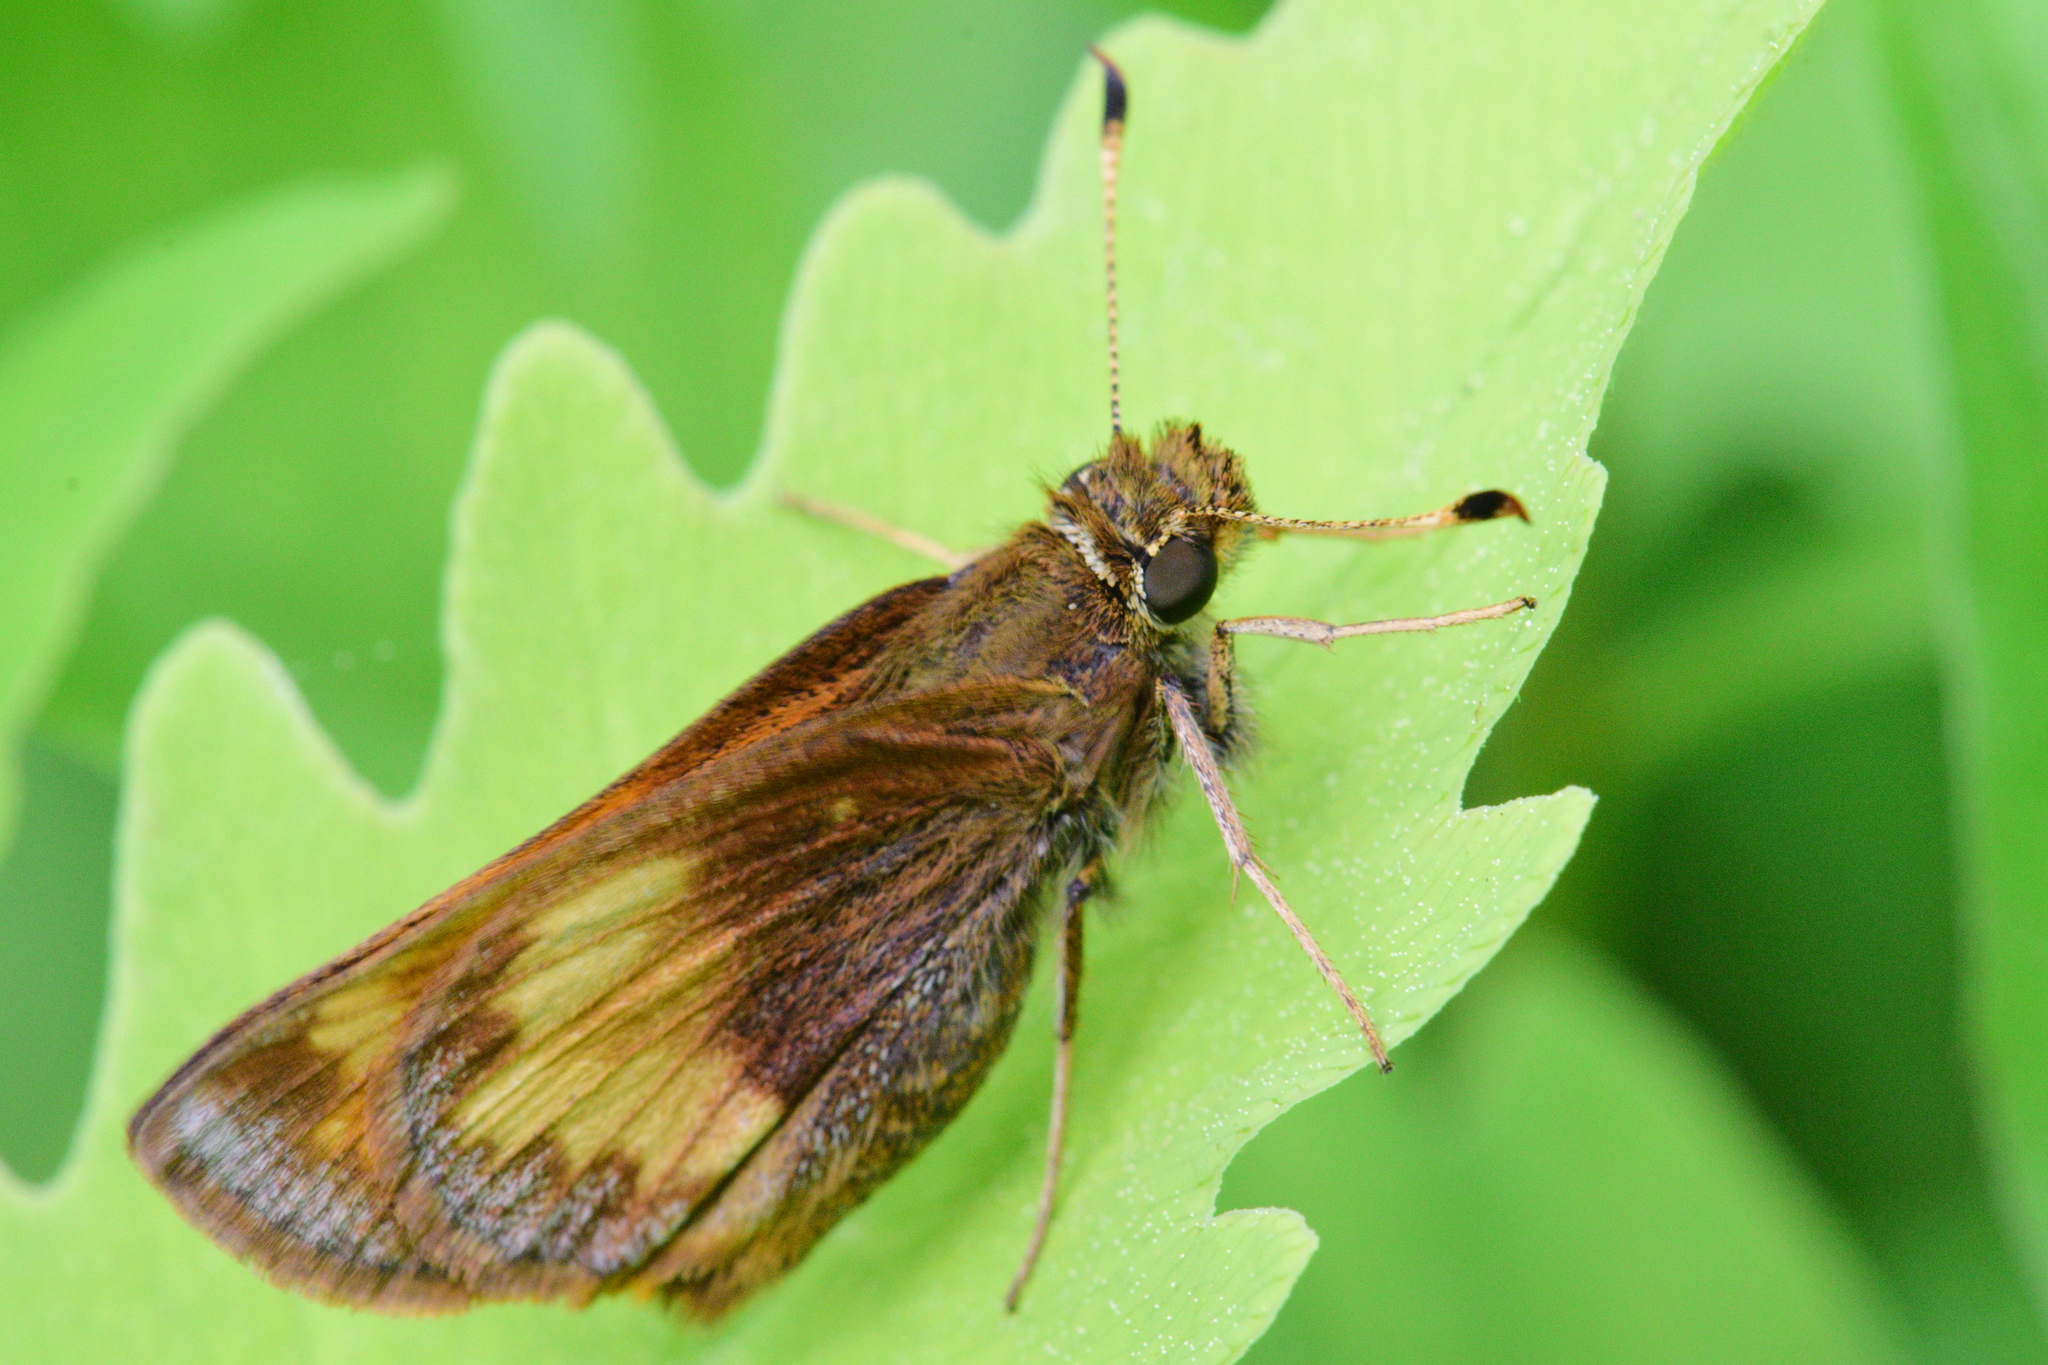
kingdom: Animalia
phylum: Arthropoda
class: Insecta
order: Lepidoptera
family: Hesperiidae
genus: Lon
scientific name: Lon hobomok
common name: Hobomok skipper
